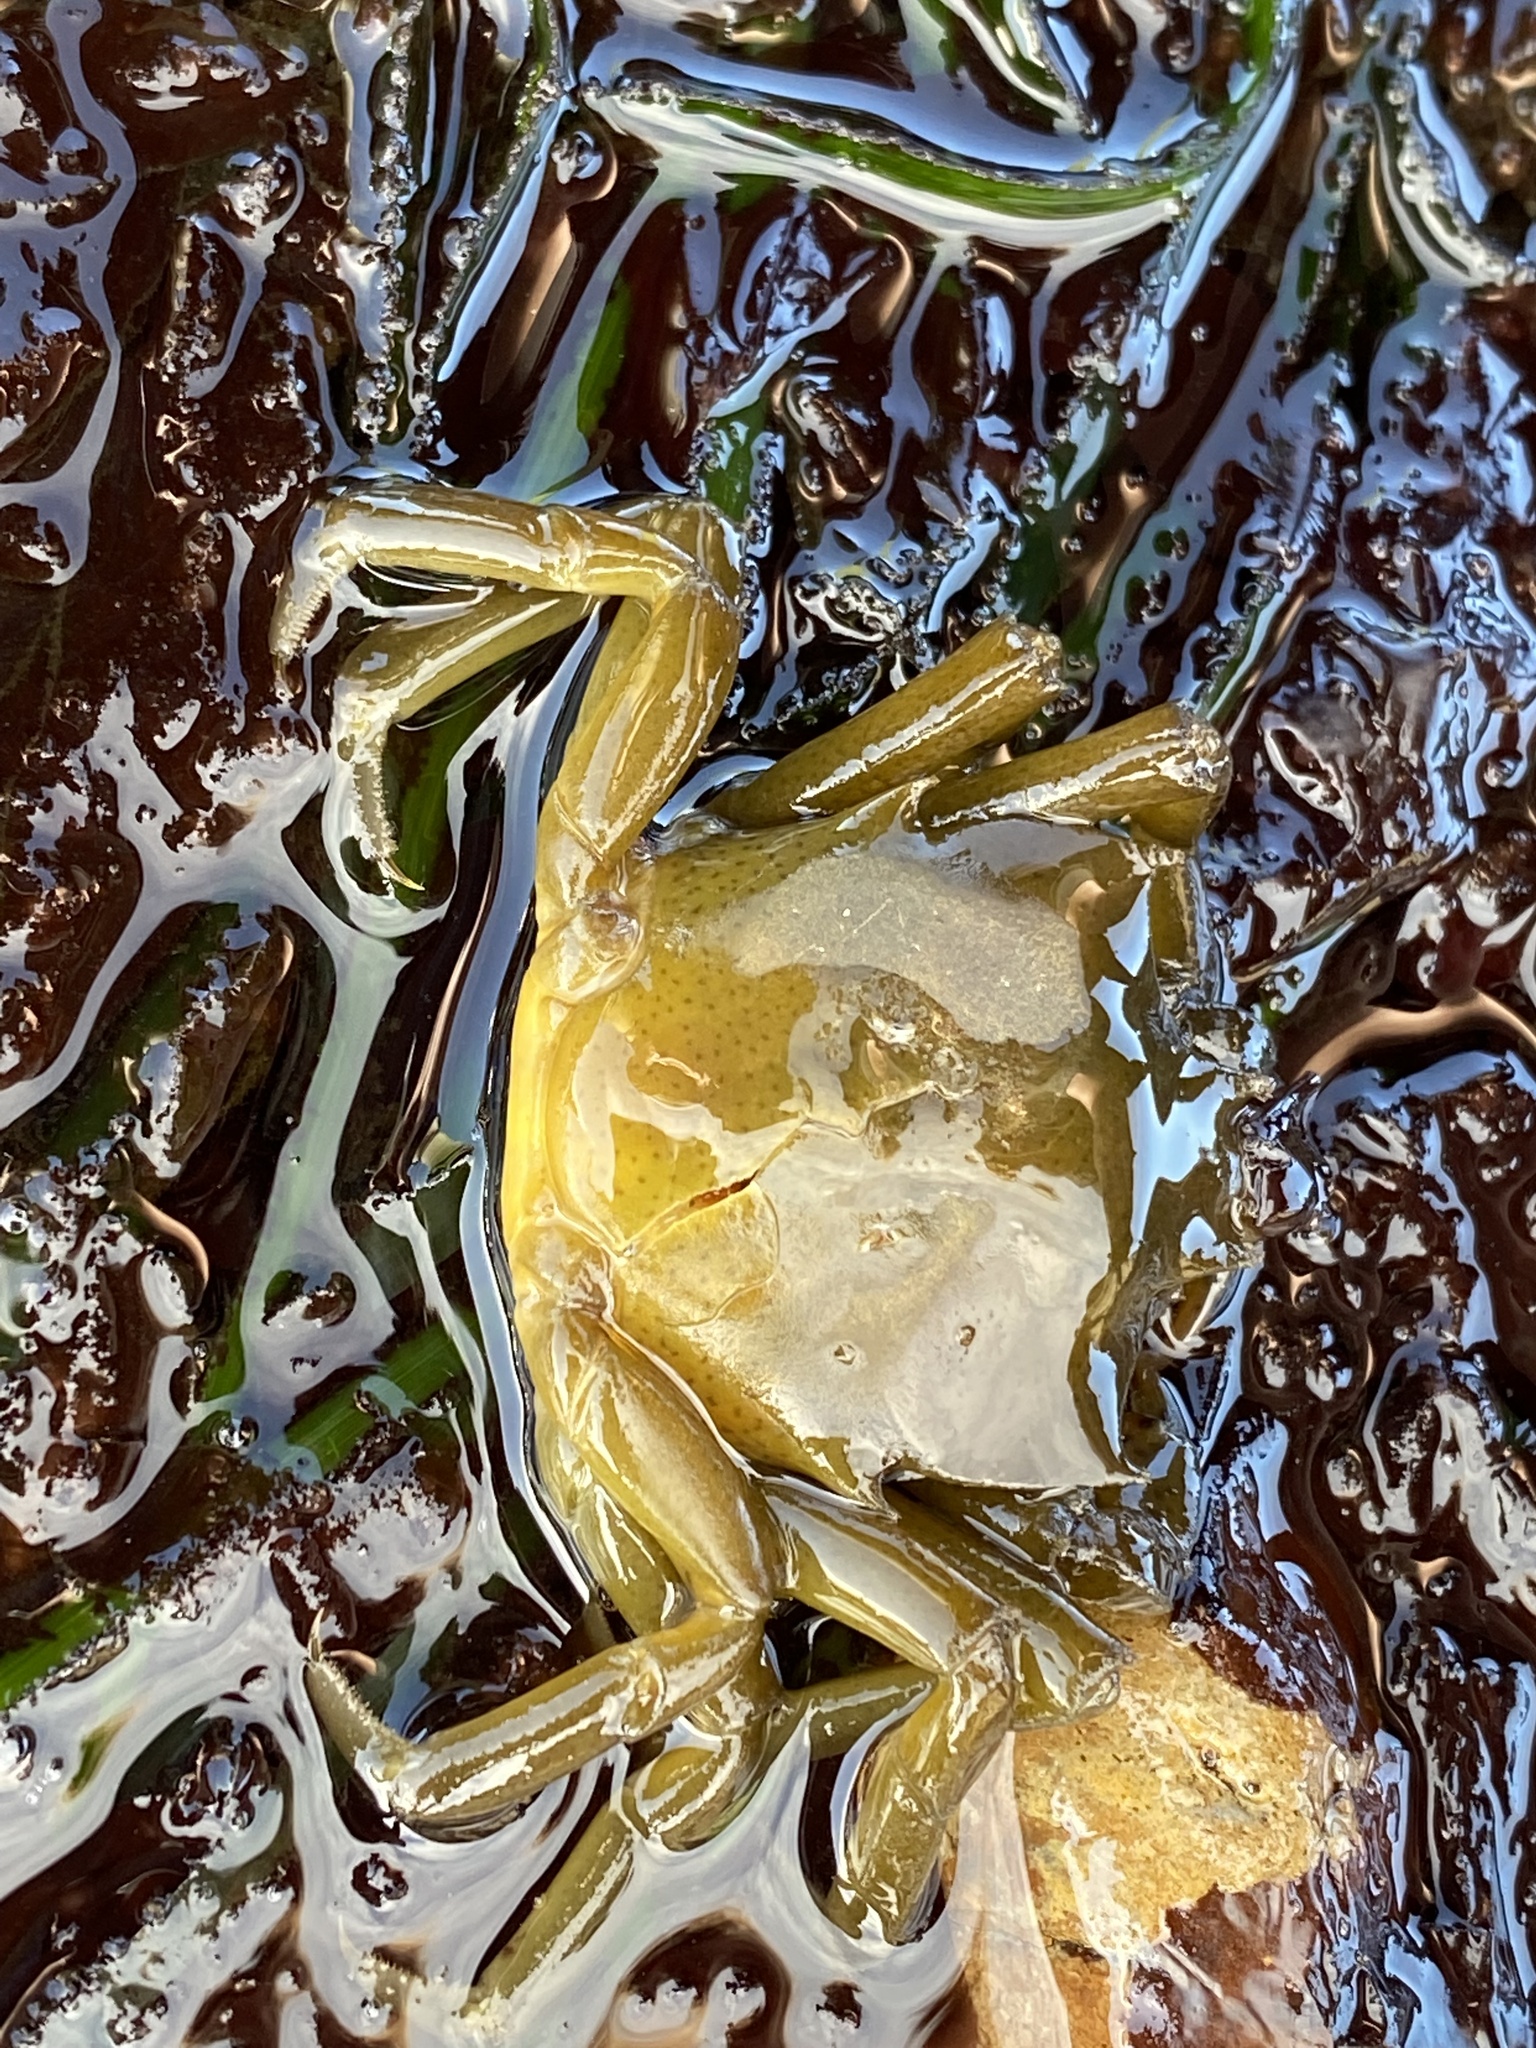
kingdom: Animalia
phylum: Arthropoda
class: Malacostraca
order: Decapoda
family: Epialtidae
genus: Pugettia
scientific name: Pugettia producta
